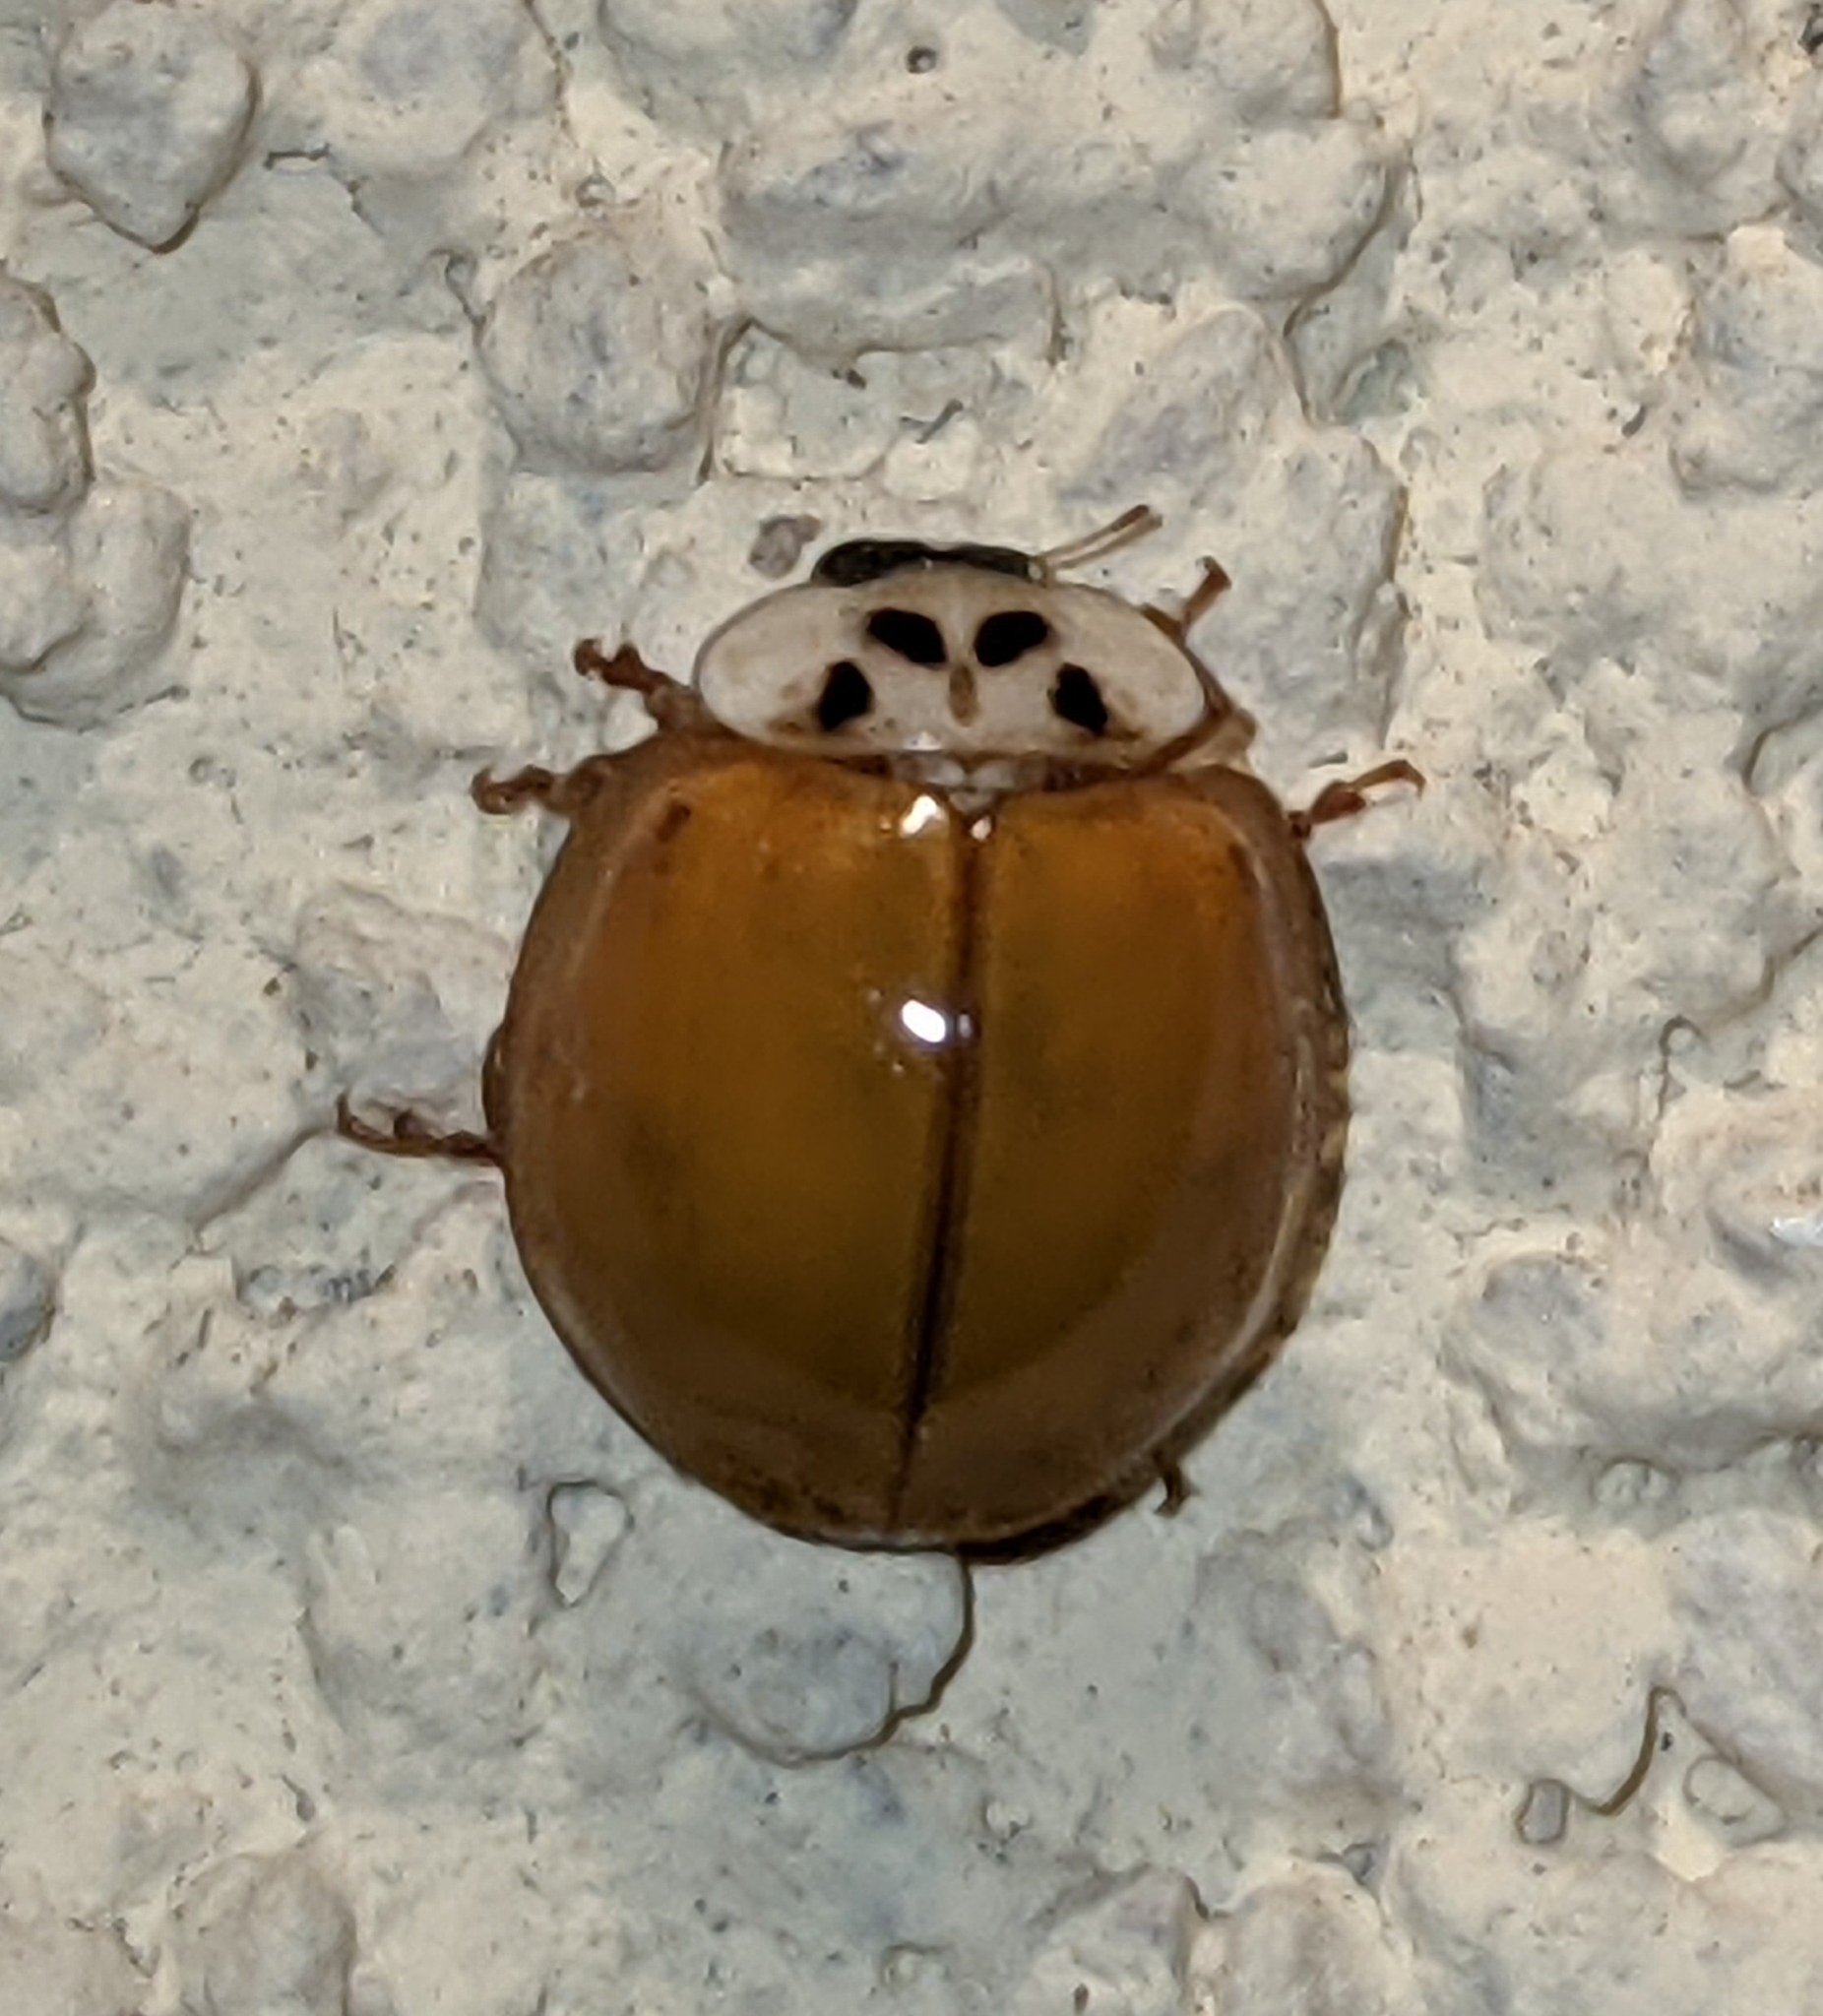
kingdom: Animalia
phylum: Arthropoda
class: Insecta
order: Coleoptera
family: Coccinellidae
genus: Harmonia
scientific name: Harmonia axyridis
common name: Harlequin ladybird
